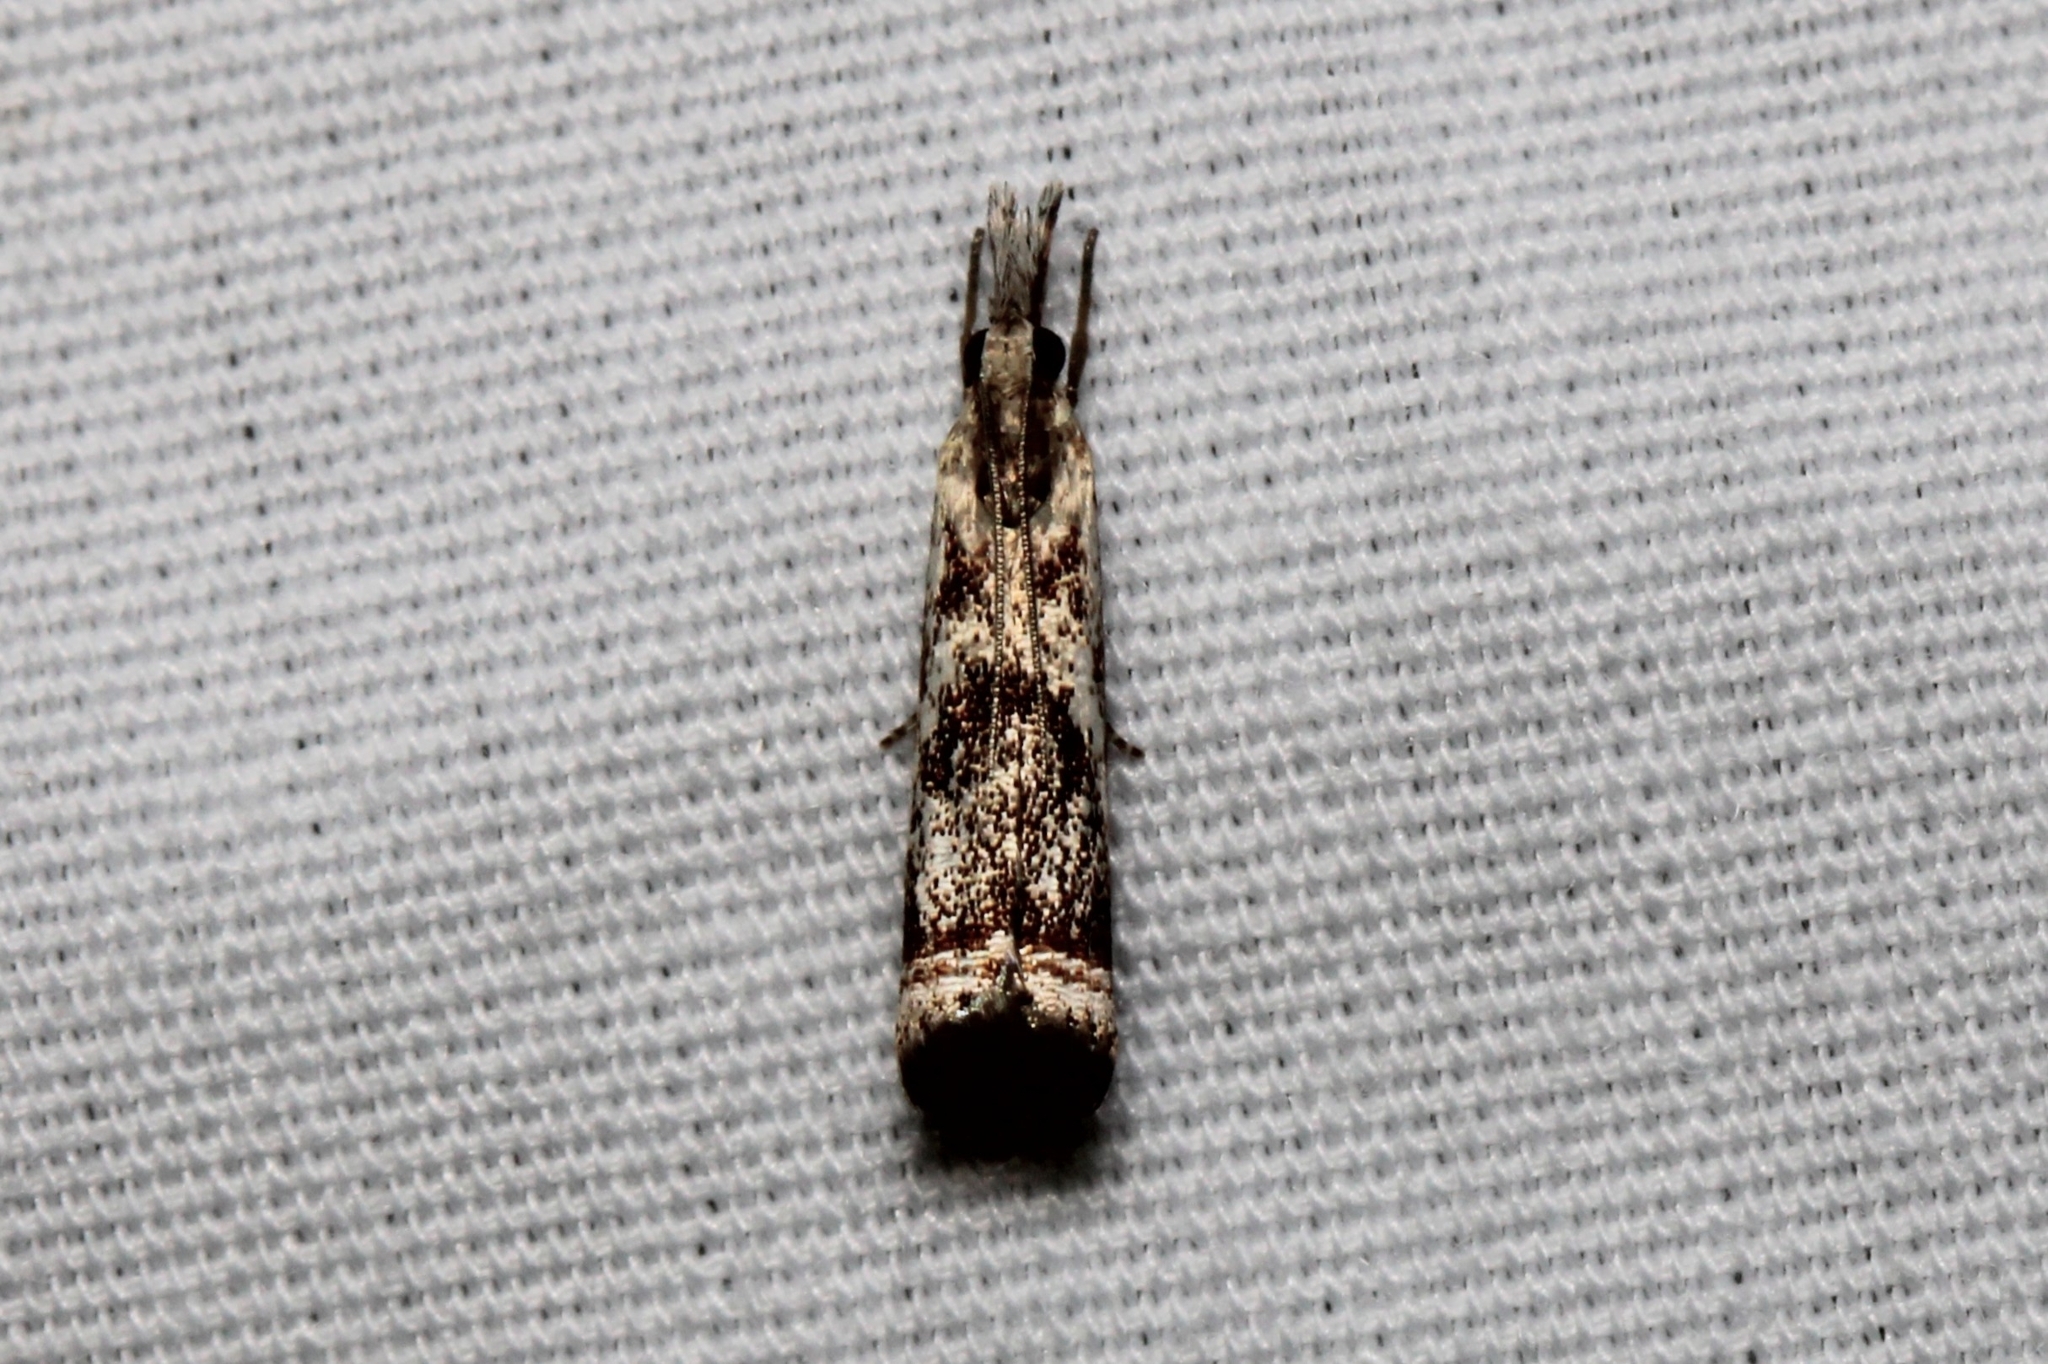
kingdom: Animalia
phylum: Arthropoda
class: Insecta
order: Lepidoptera
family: Crambidae
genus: Microcrambus
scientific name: Microcrambus elegans
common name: Elegant grass-veneer
